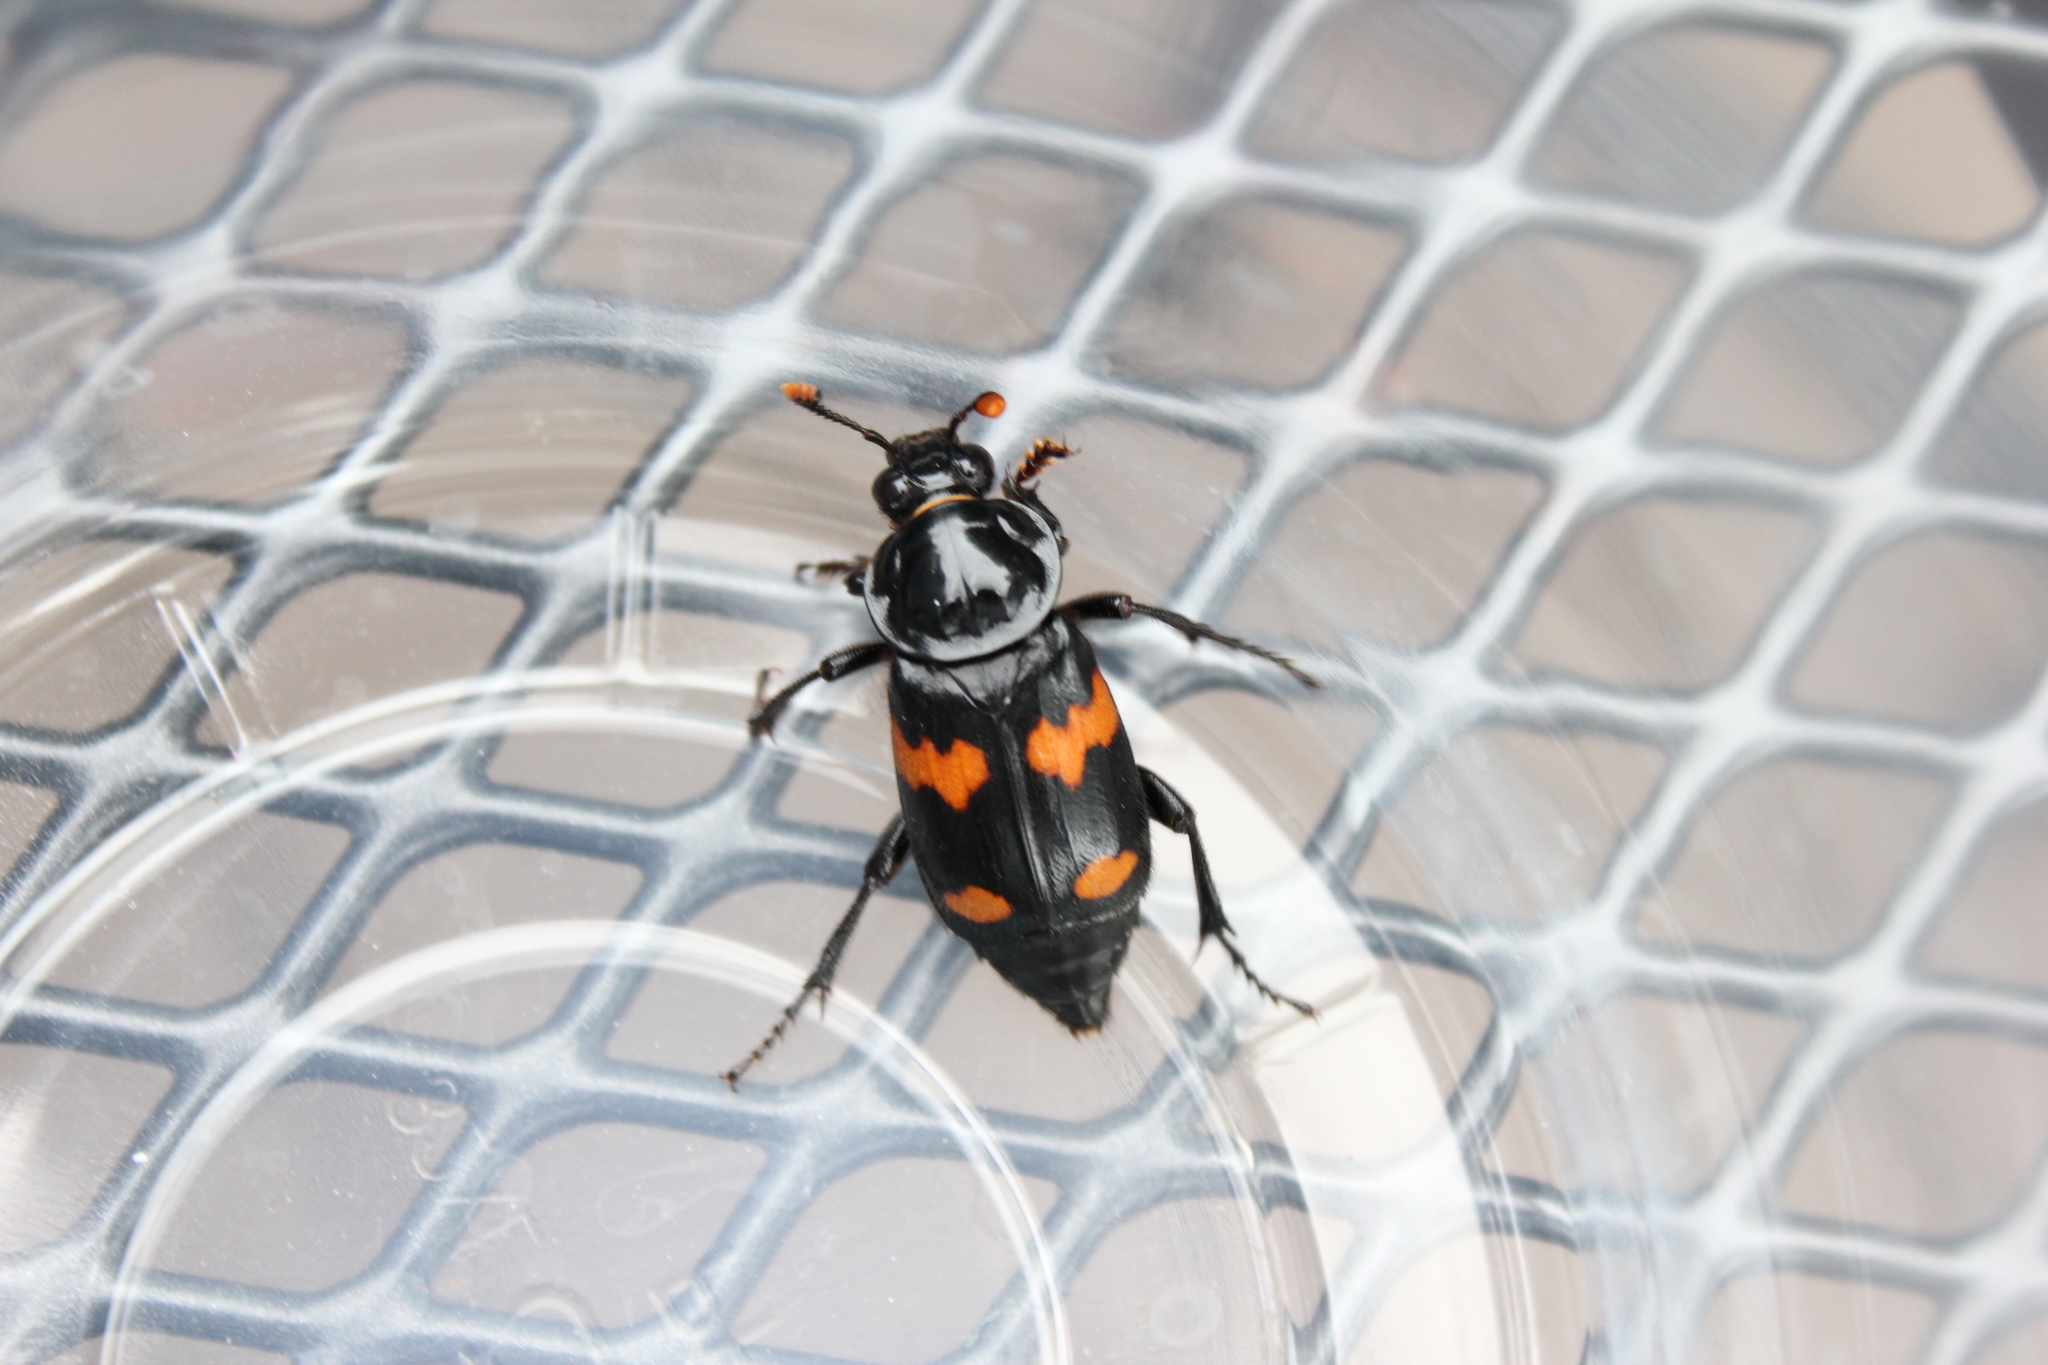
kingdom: Animalia
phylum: Arthropoda
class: Insecta
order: Coleoptera
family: Staphylinidae
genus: Nicrophorus
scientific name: Nicrophorus orbicollis
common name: Roundneck sexton beetle
